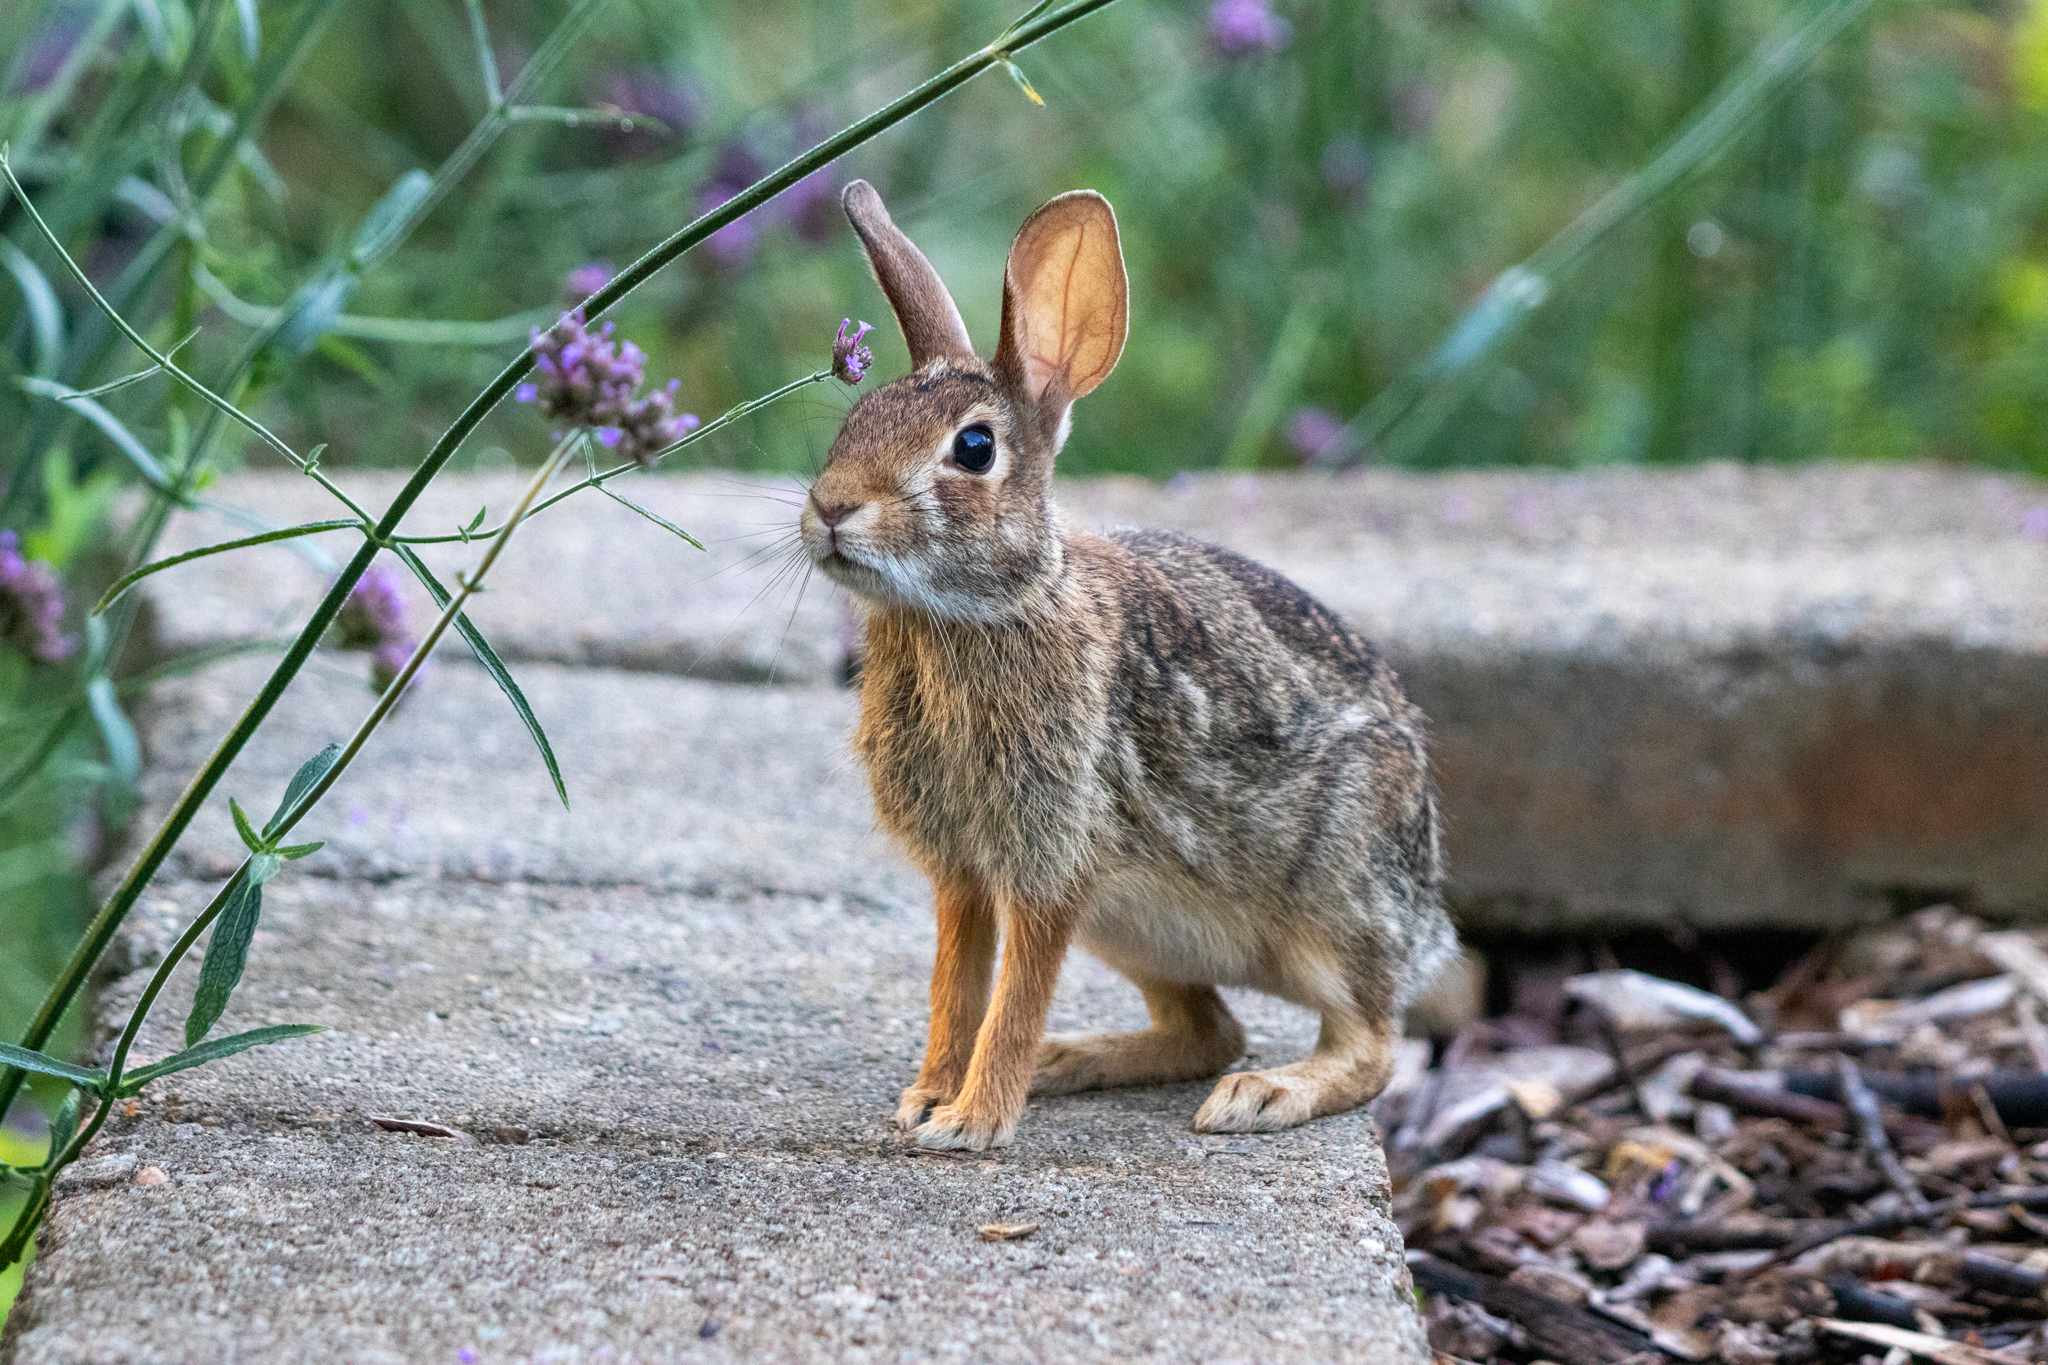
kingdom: Animalia
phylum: Chordata
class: Mammalia
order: Lagomorpha
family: Leporidae
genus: Sylvilagus
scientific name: Sylvilagus floridanus
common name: Eastern cottontail
